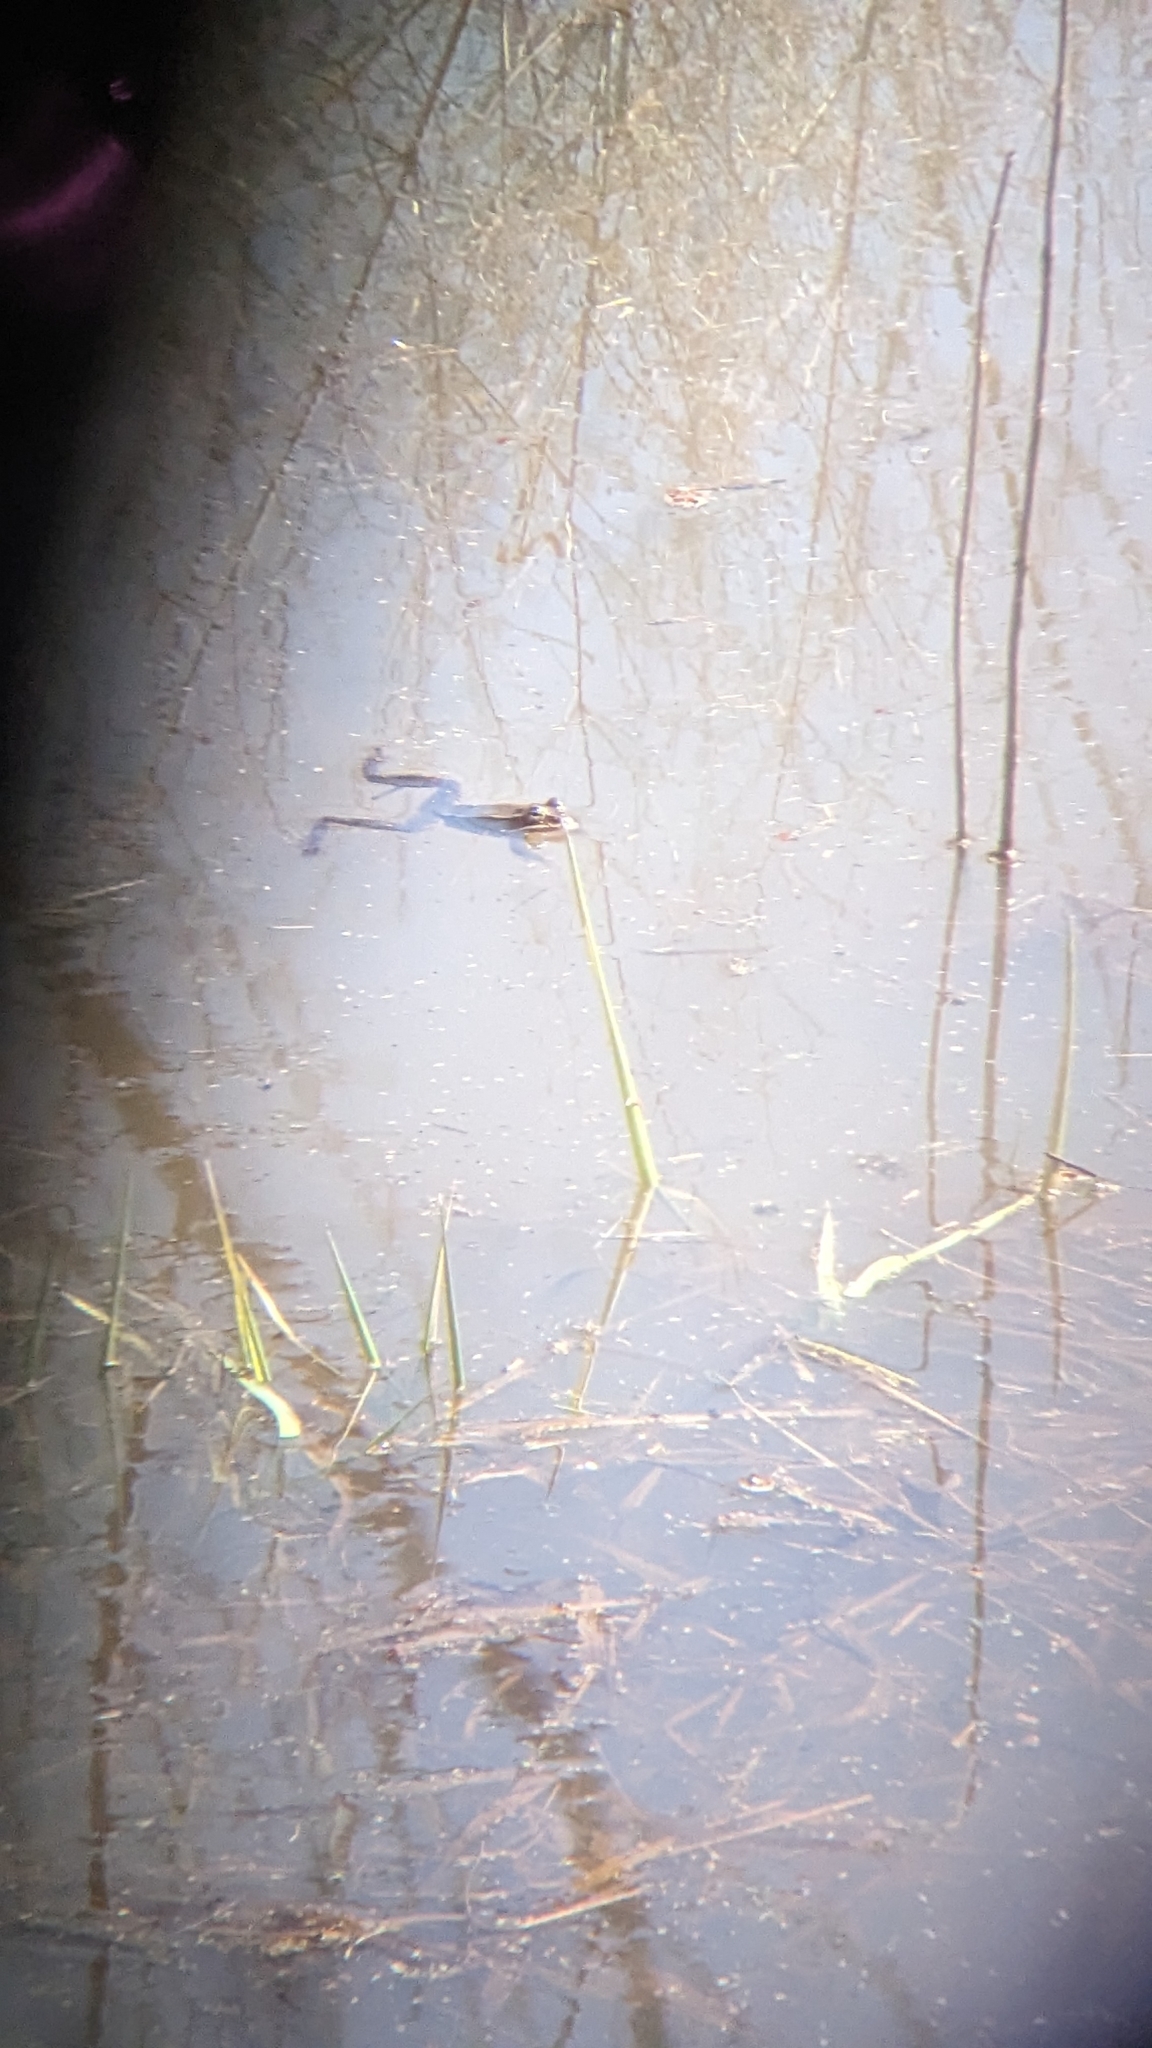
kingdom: Animalia
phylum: Chordata
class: Amphibia
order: Anura
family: Ranidae
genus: Lithobates
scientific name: Lithobates sylvaticus
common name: Wood frog
